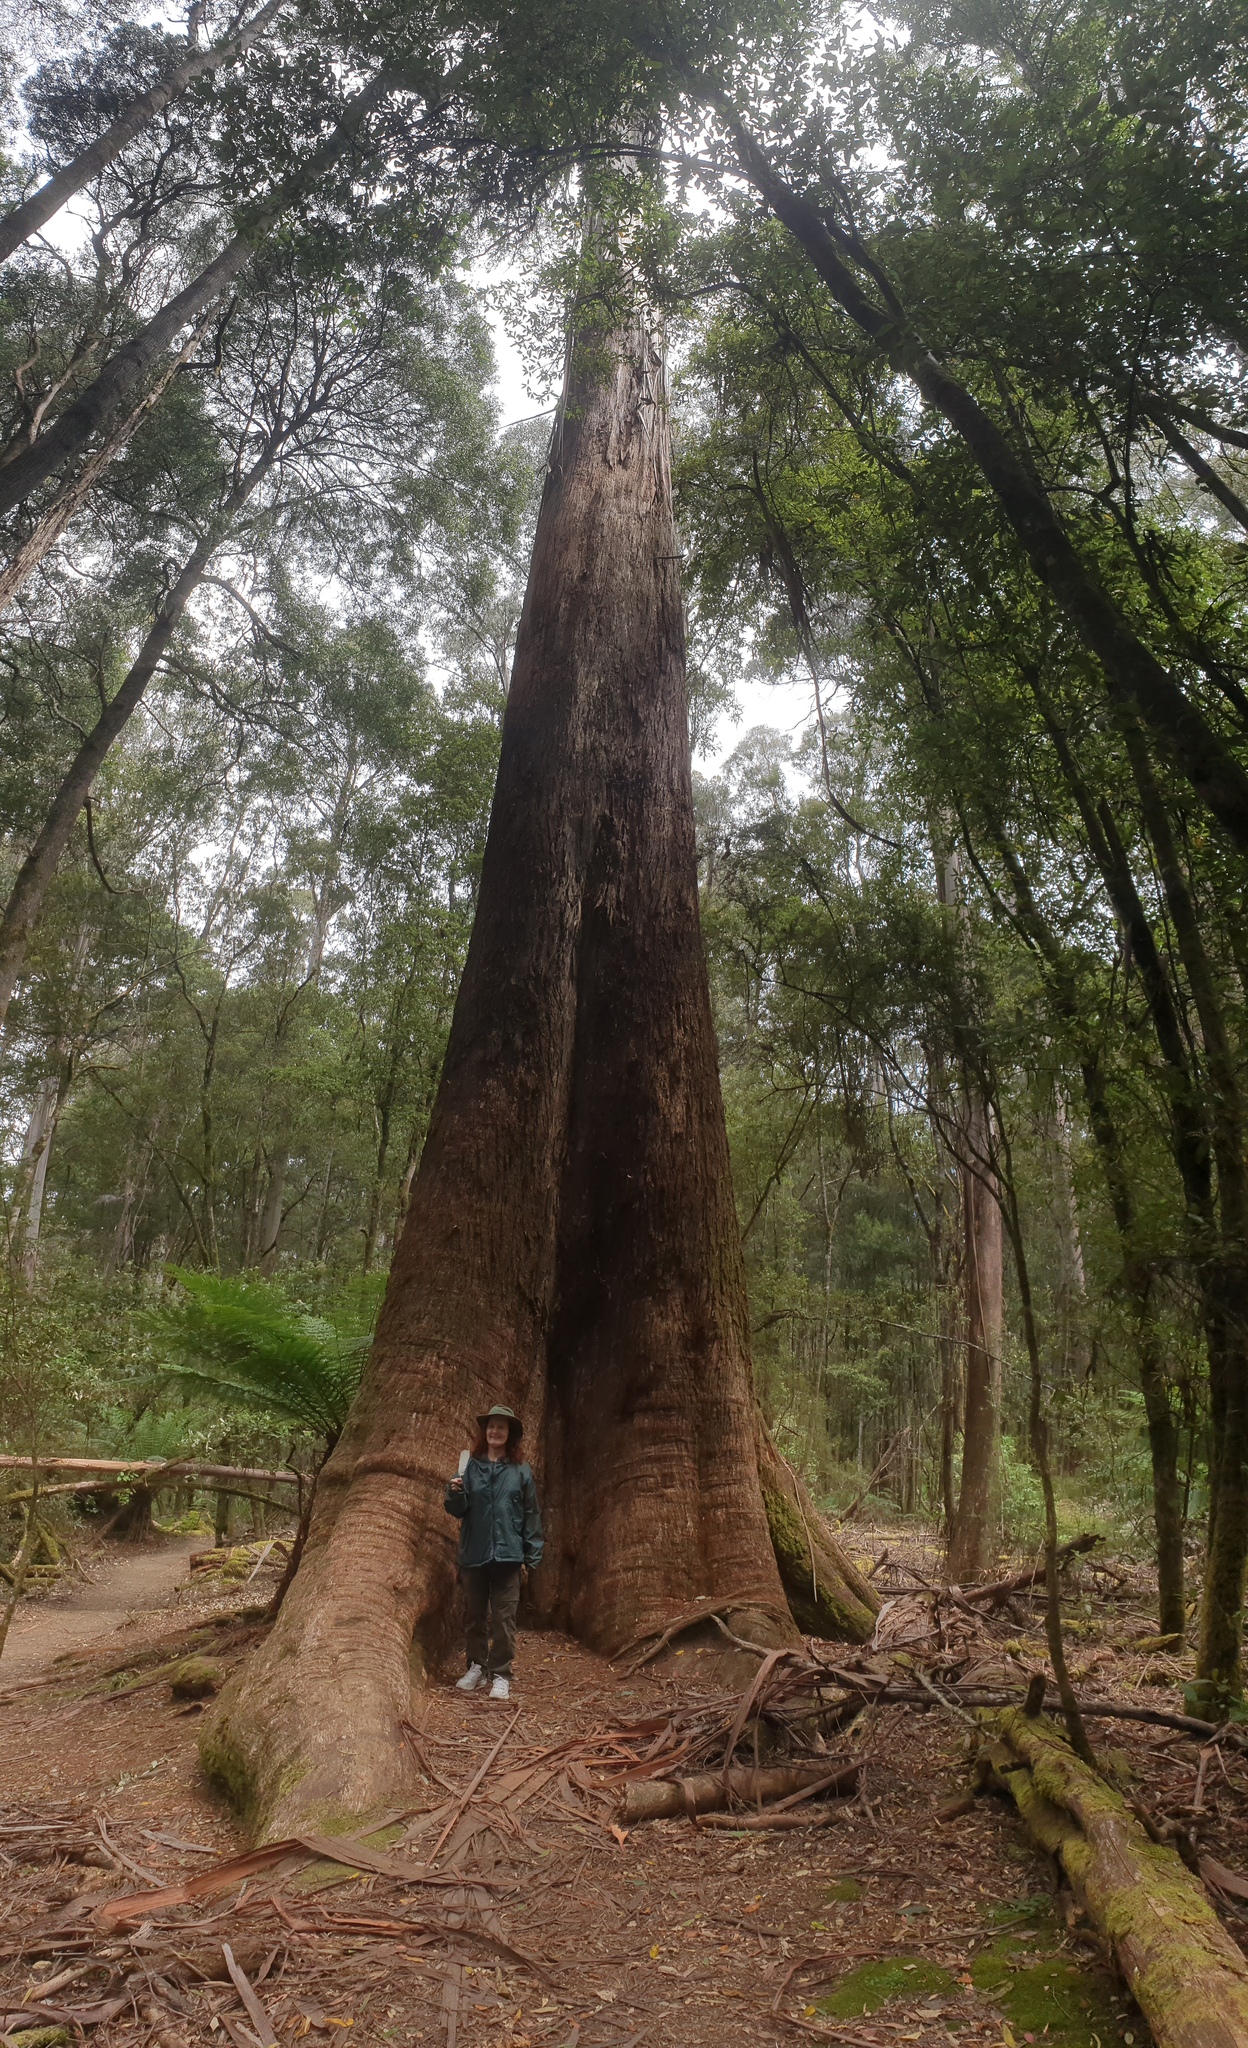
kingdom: Plantae
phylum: Tracheophyta
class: Magnoliopsida
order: Myrtales
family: Myrtaceae
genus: Eucalyptus
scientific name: Eucalyptus regnans
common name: Stringy gum
